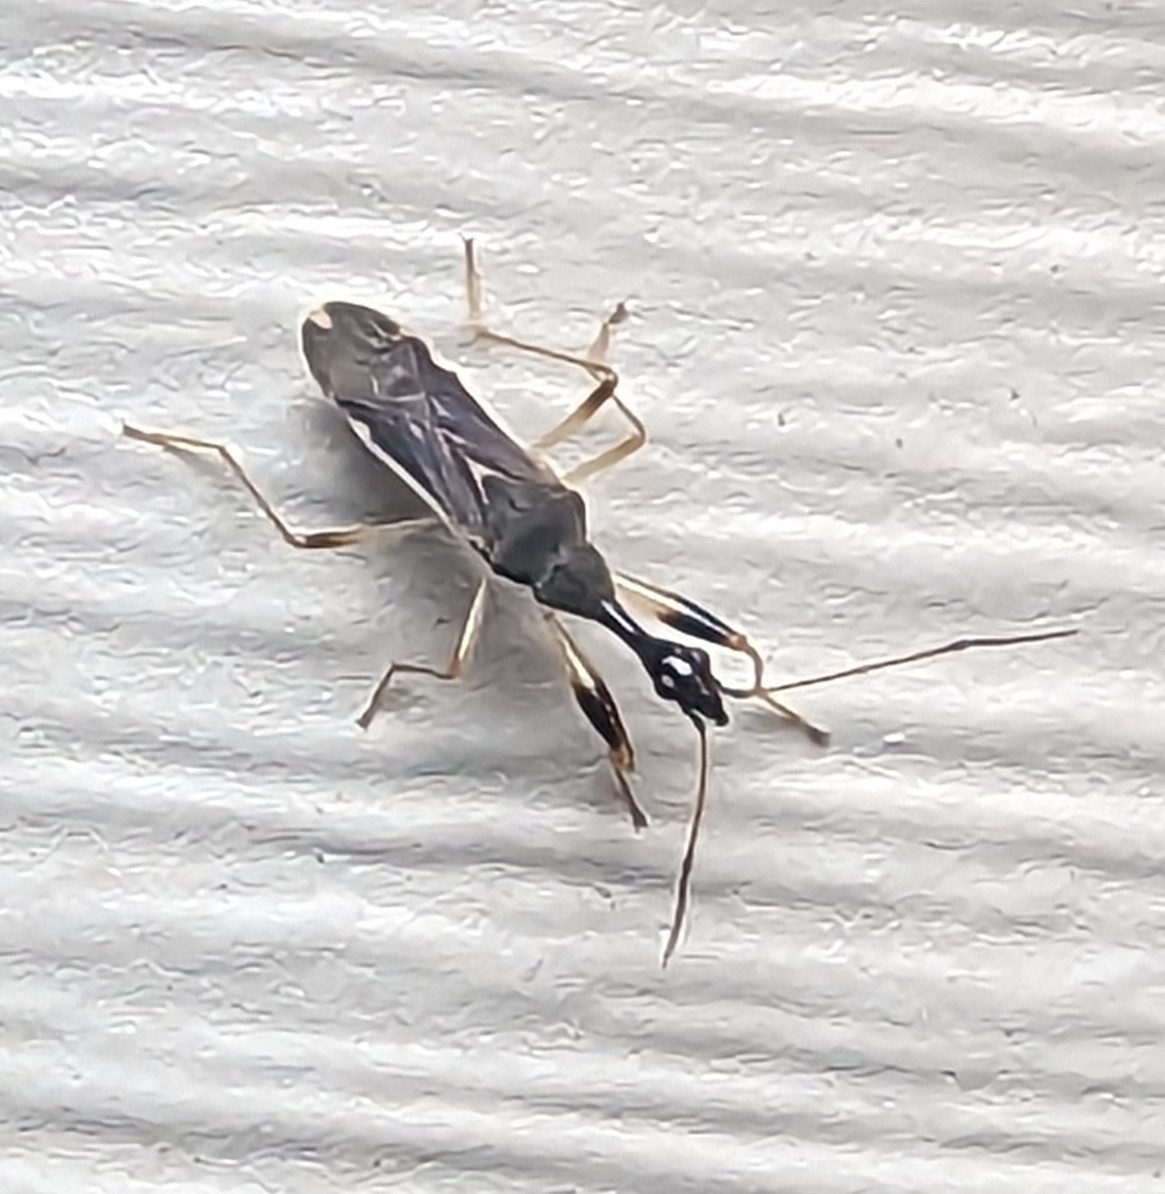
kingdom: Animalia
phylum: Arthropoda
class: Insecta
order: Hemiptera
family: Rhyparochromidae
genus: Myodocha
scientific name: Myodocha serripes
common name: Long-necked seed bug
